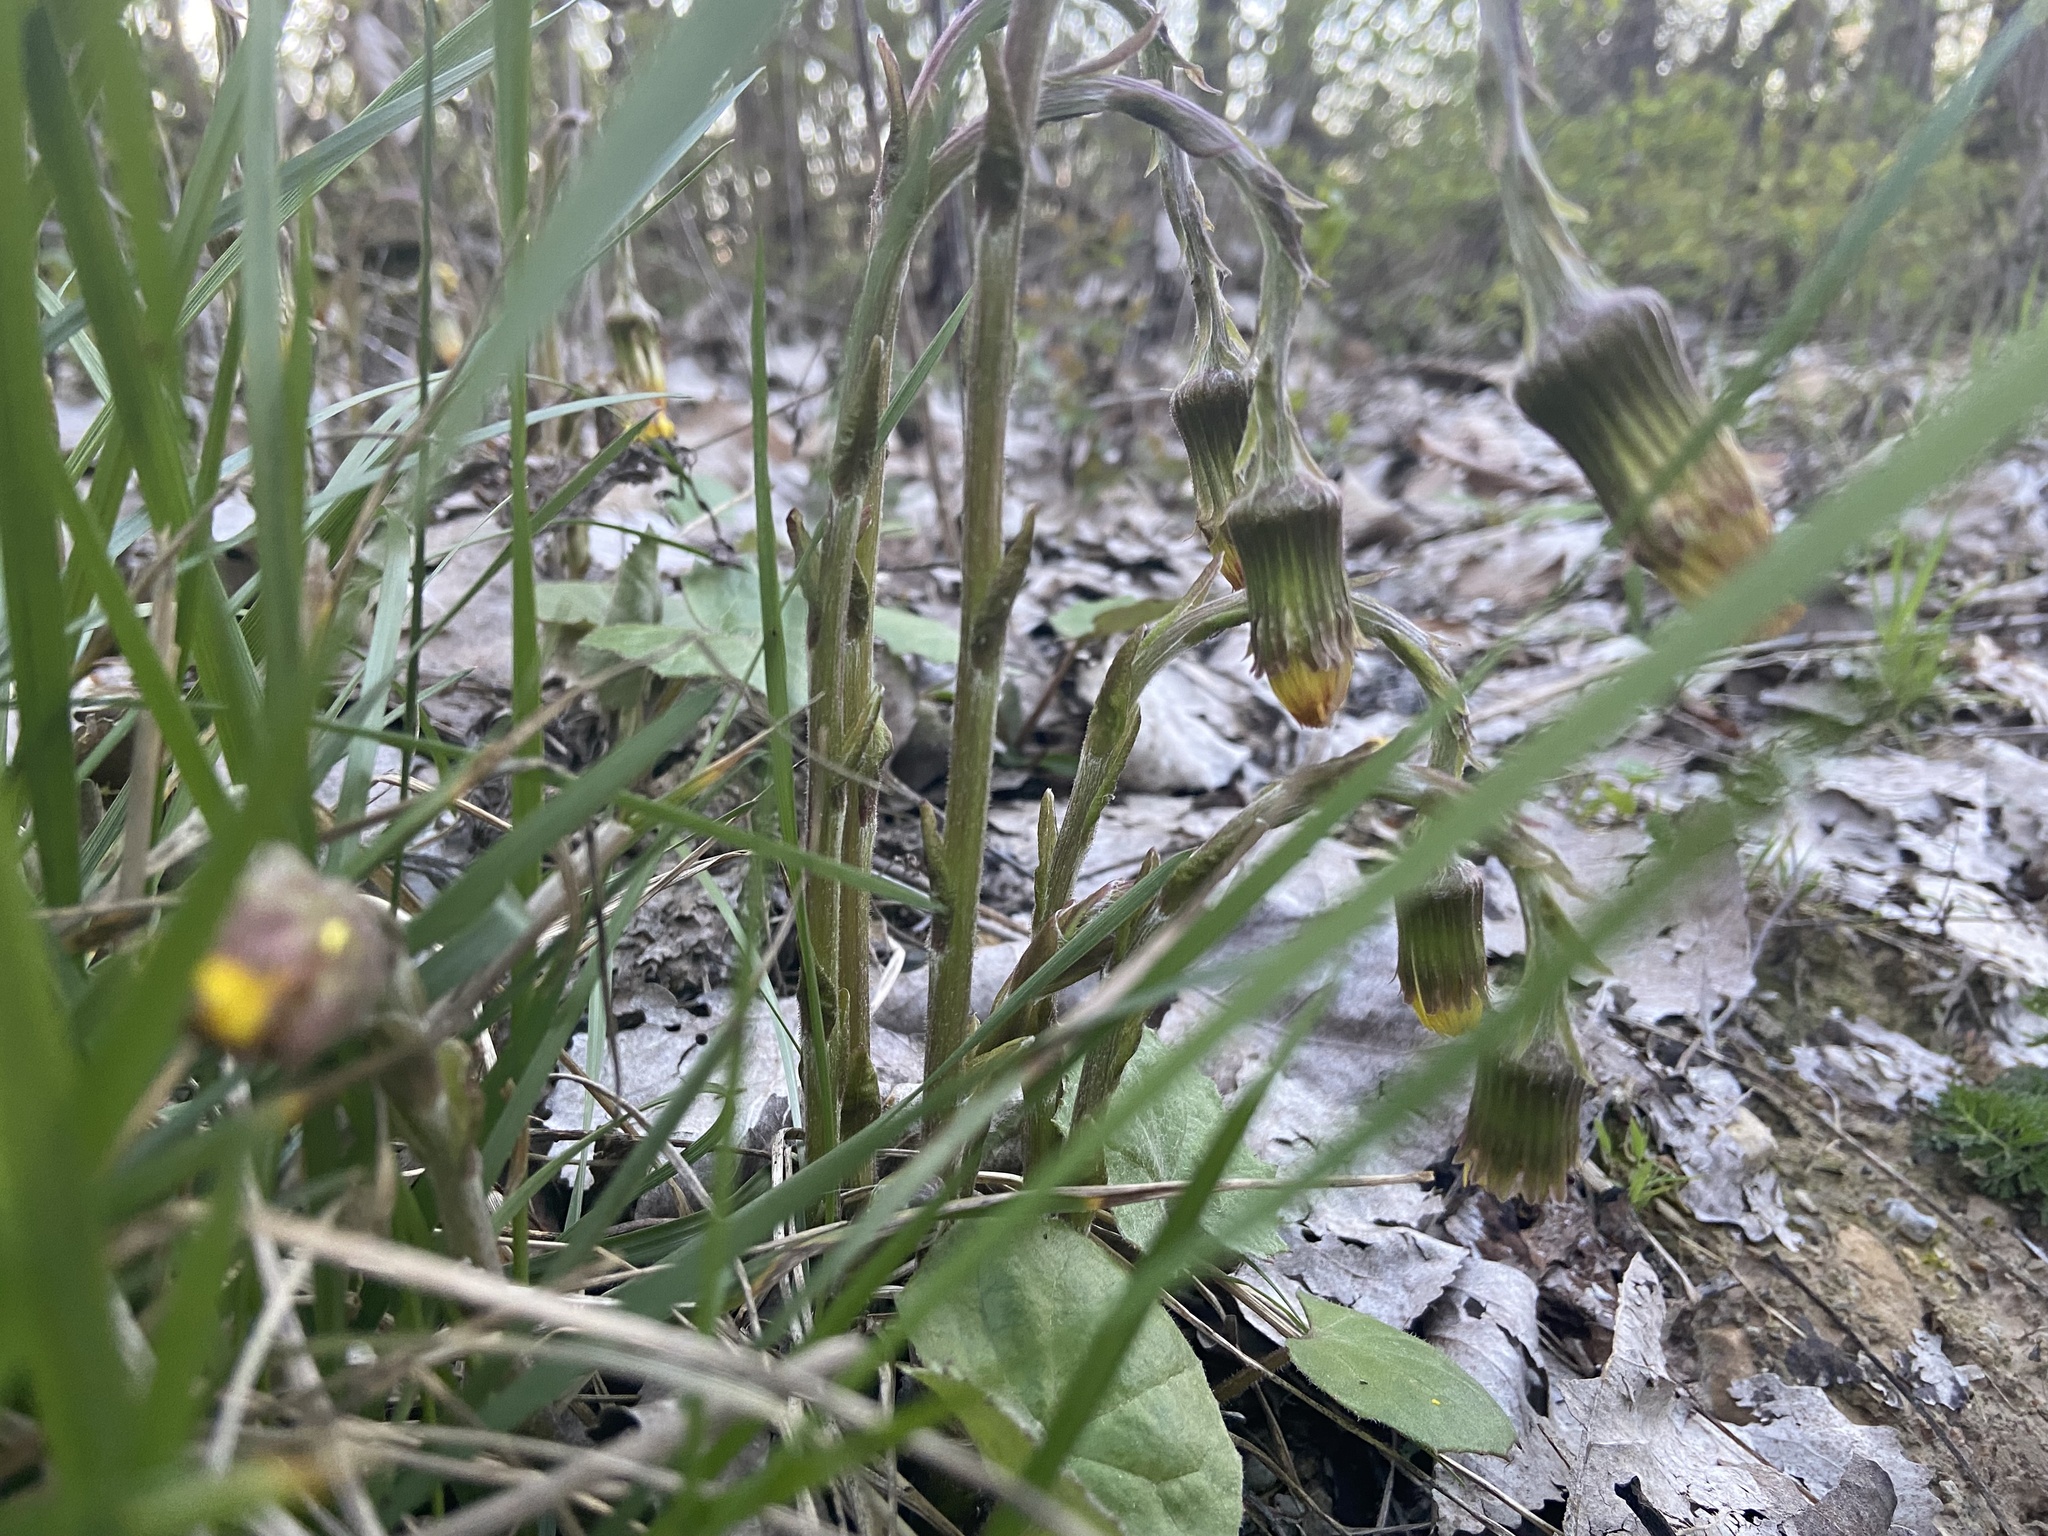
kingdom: Plantae
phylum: Tracheophyta
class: Magnoliopsida
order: Asterales
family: Asteraceae
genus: Tussilago
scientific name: Tussilago farfara
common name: Coltsfoot
